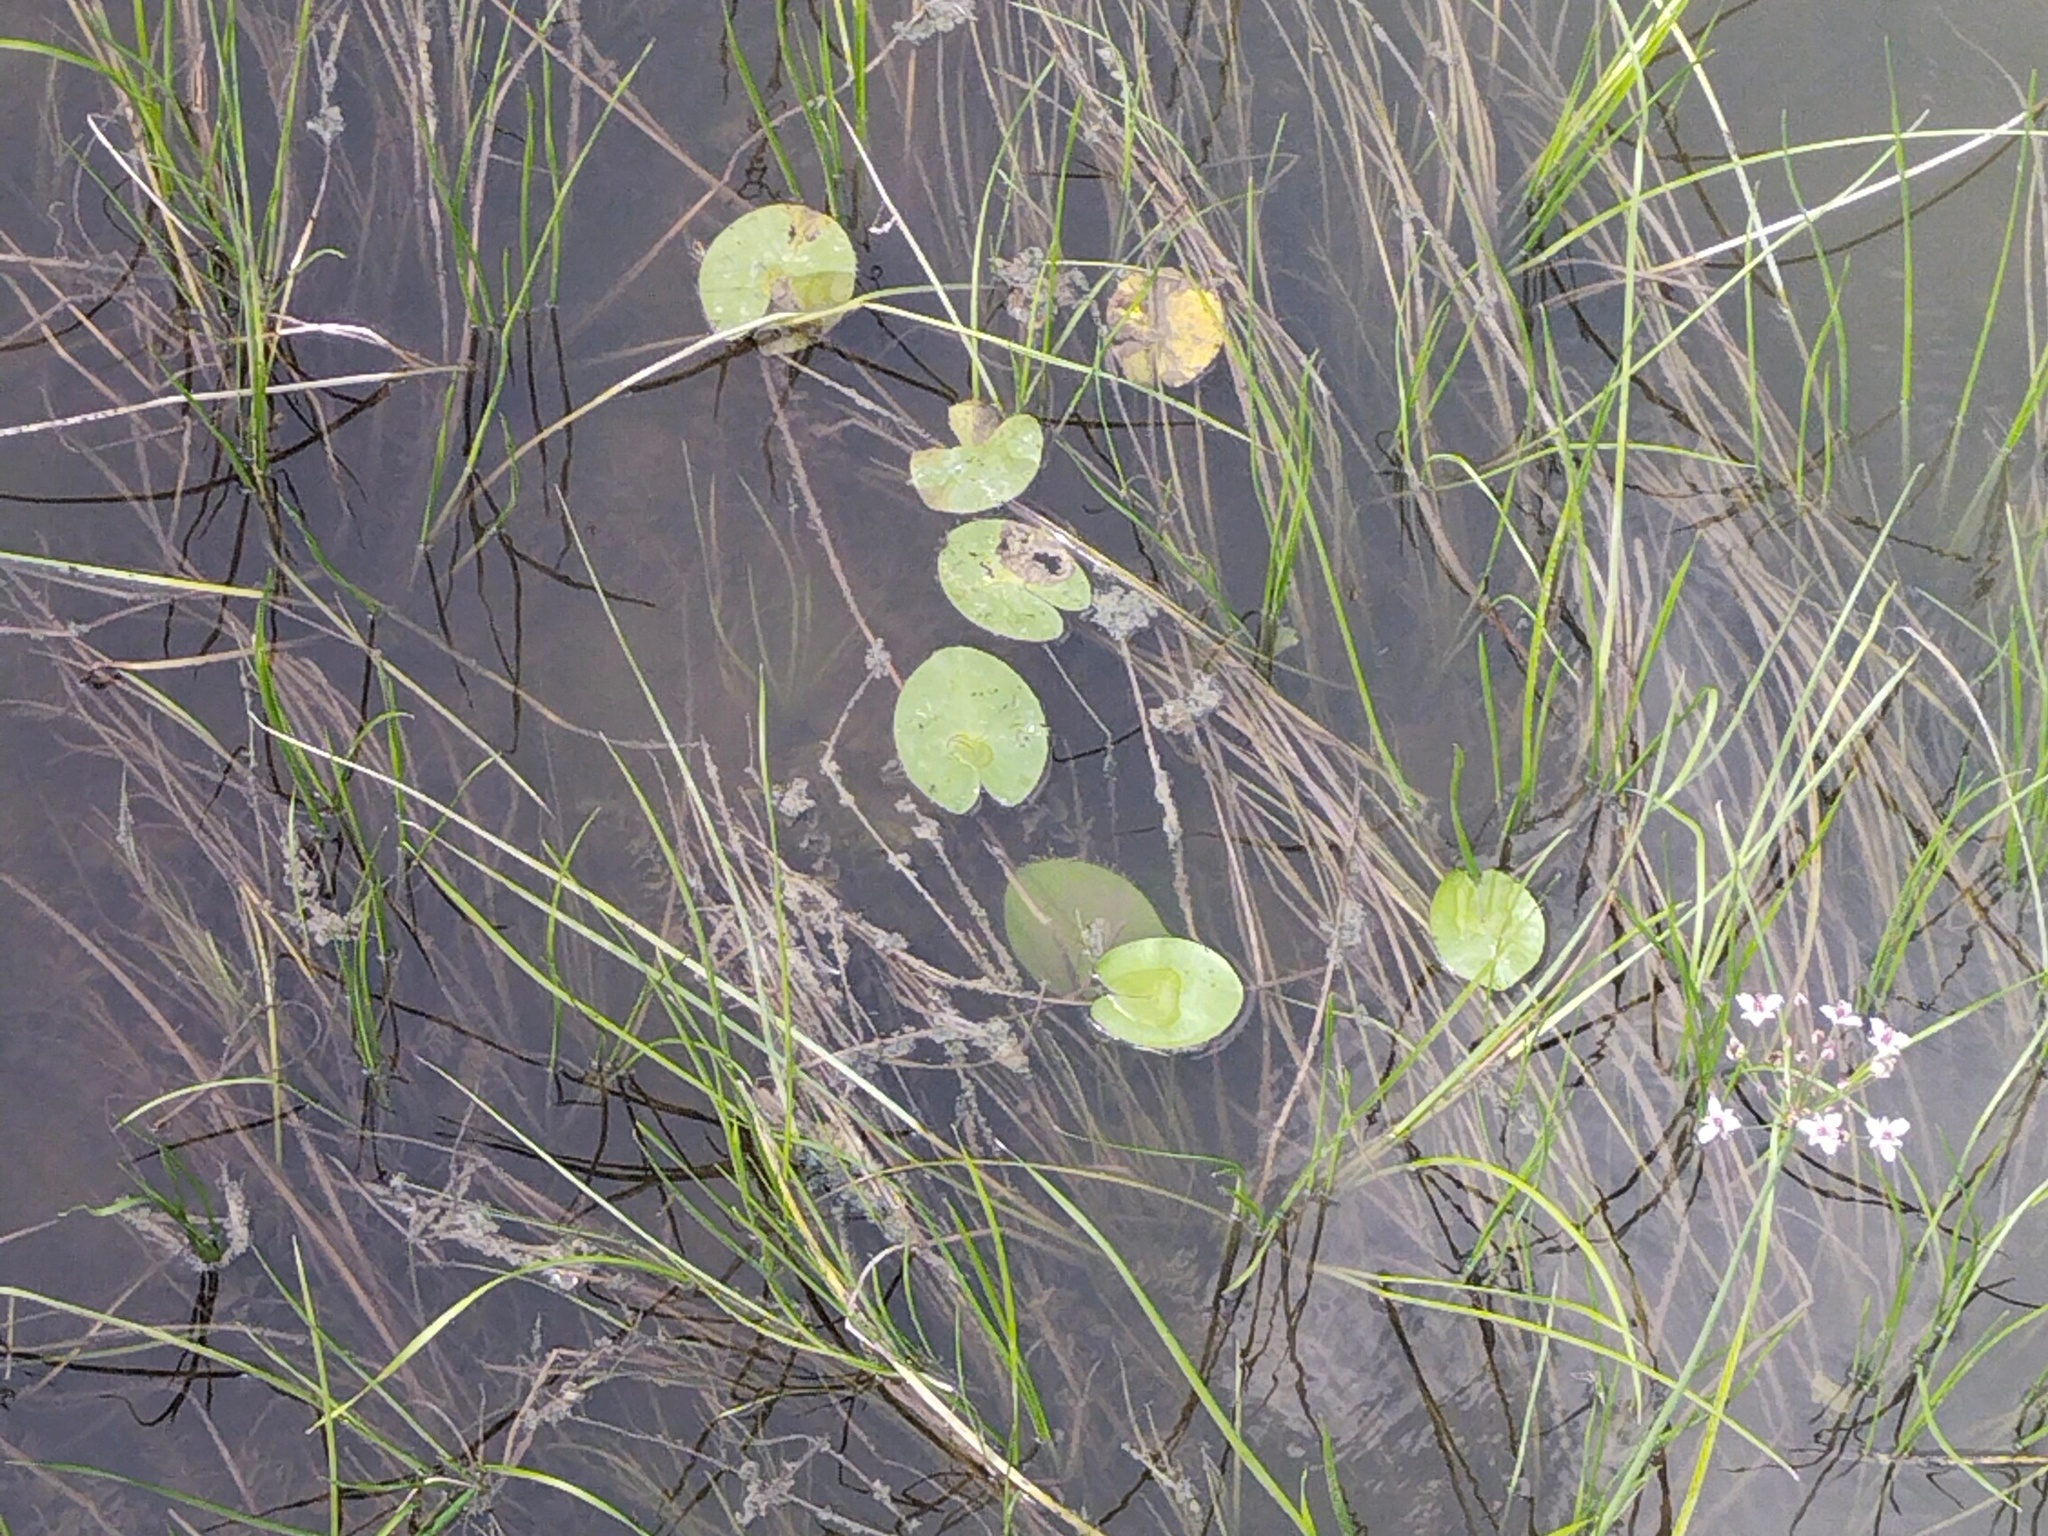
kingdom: Plantae
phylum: Tracheophyta
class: Magnoliopsida
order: Nymphaeales
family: Nymphaeaceae
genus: Nuphar
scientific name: Nuphar lutea
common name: Yellow water-lily
